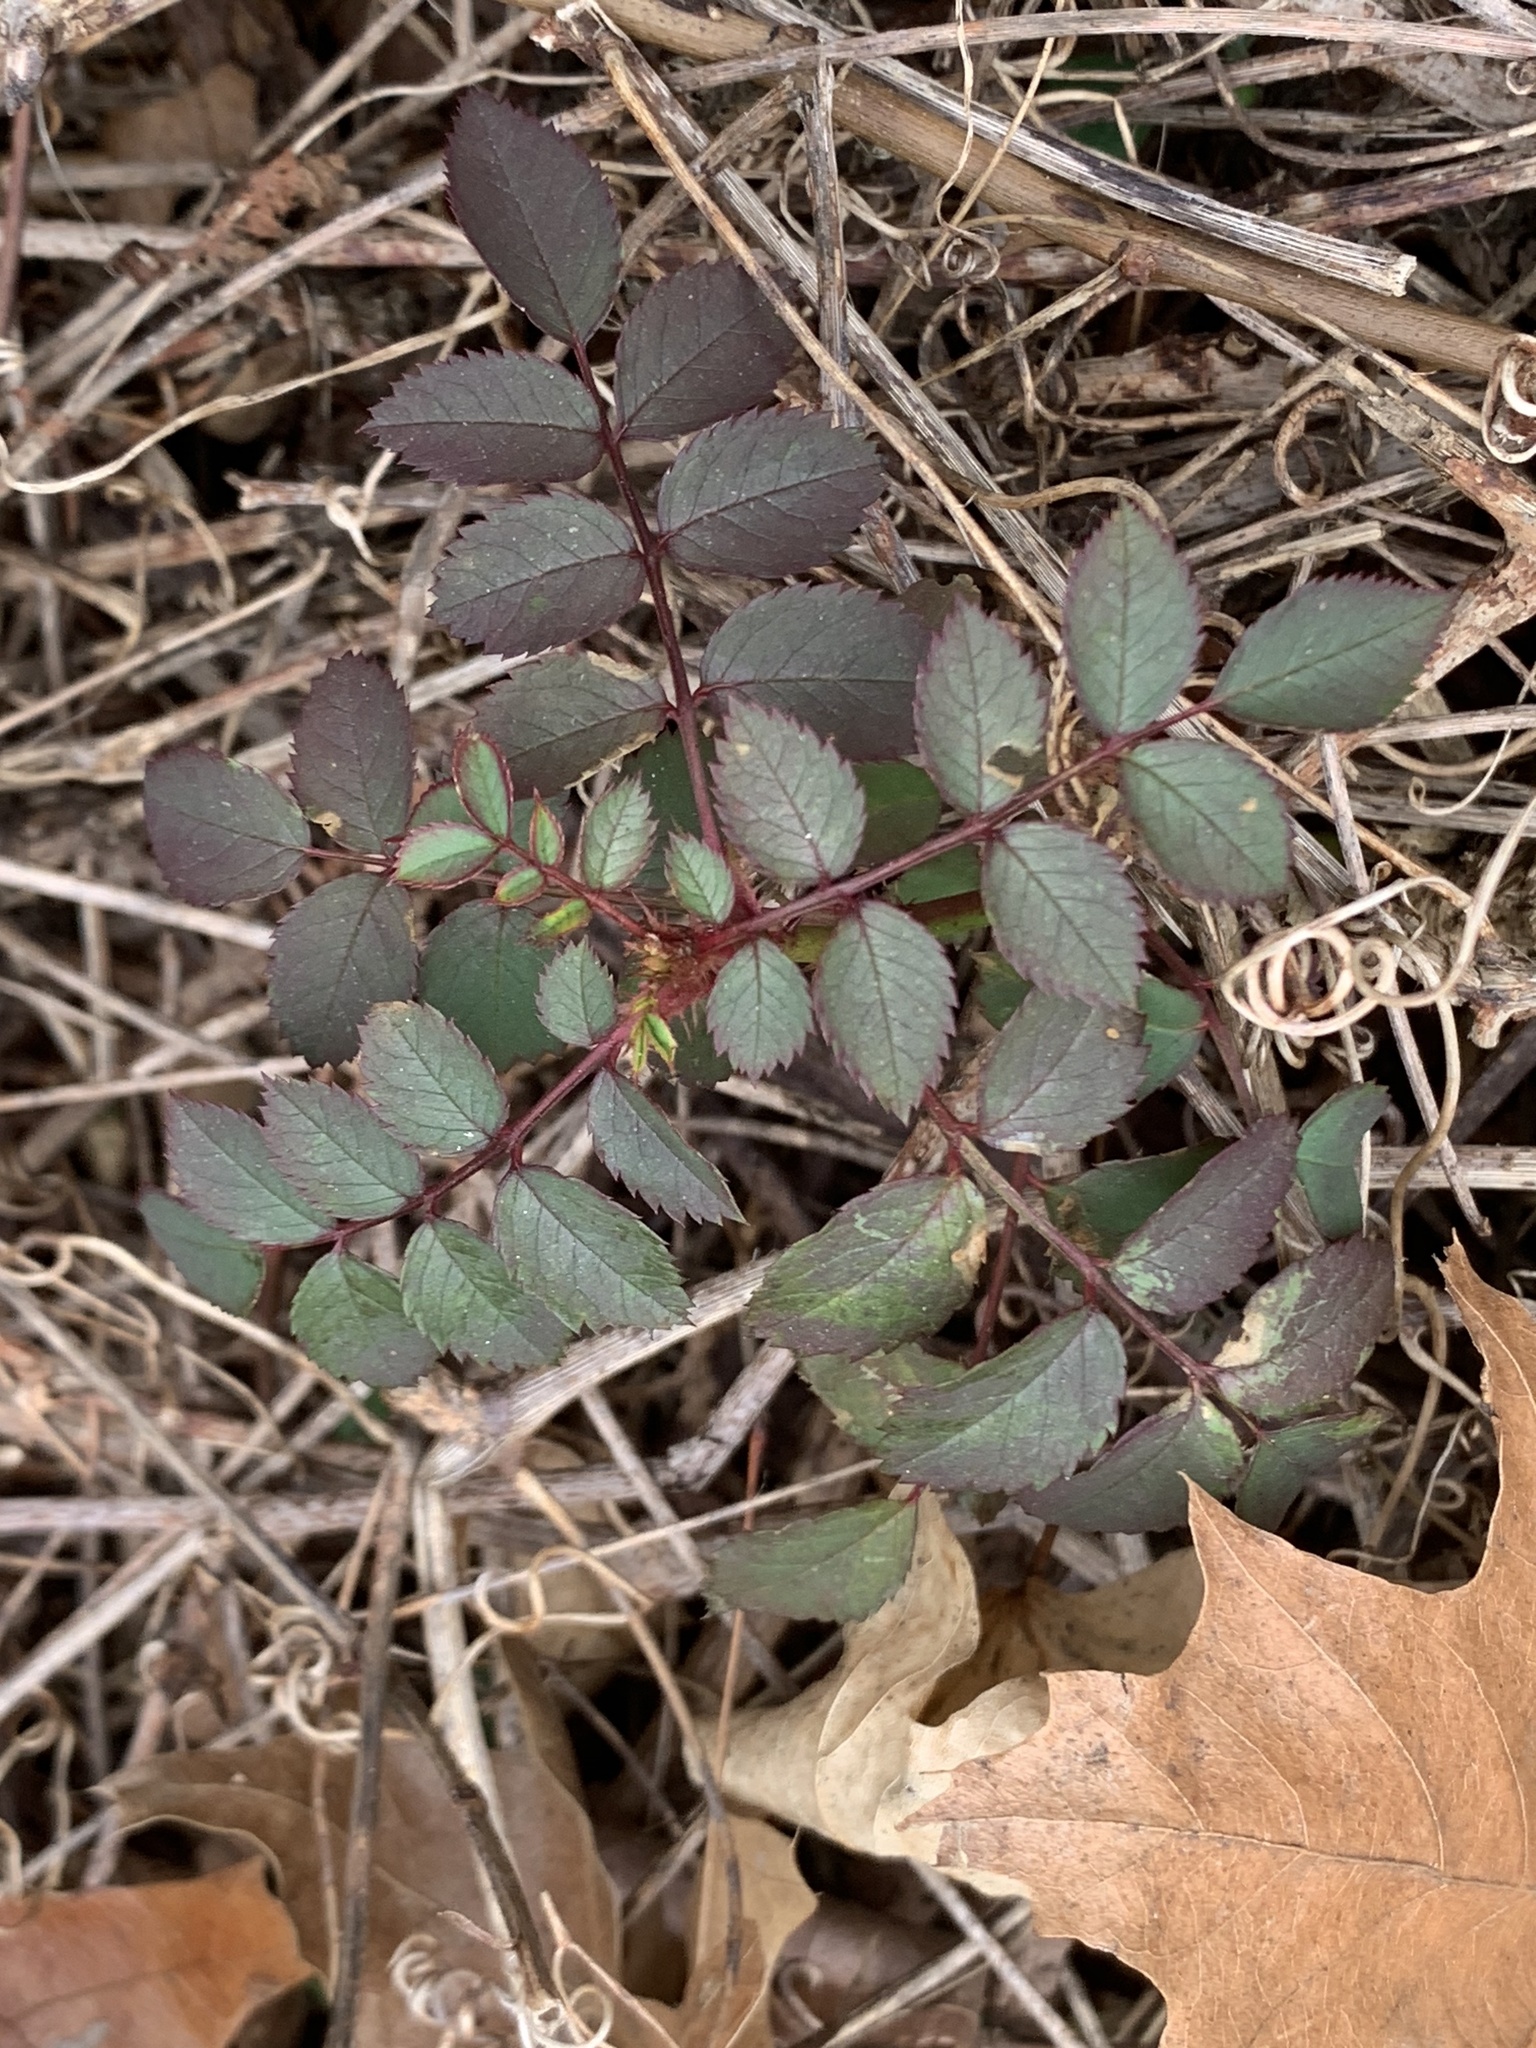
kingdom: Plantae
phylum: Tracheophyta
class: Magnoliopsida
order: Rosales
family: Rosaceae
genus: Rosa
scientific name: Rosa multiflora
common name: Multiflora rose
